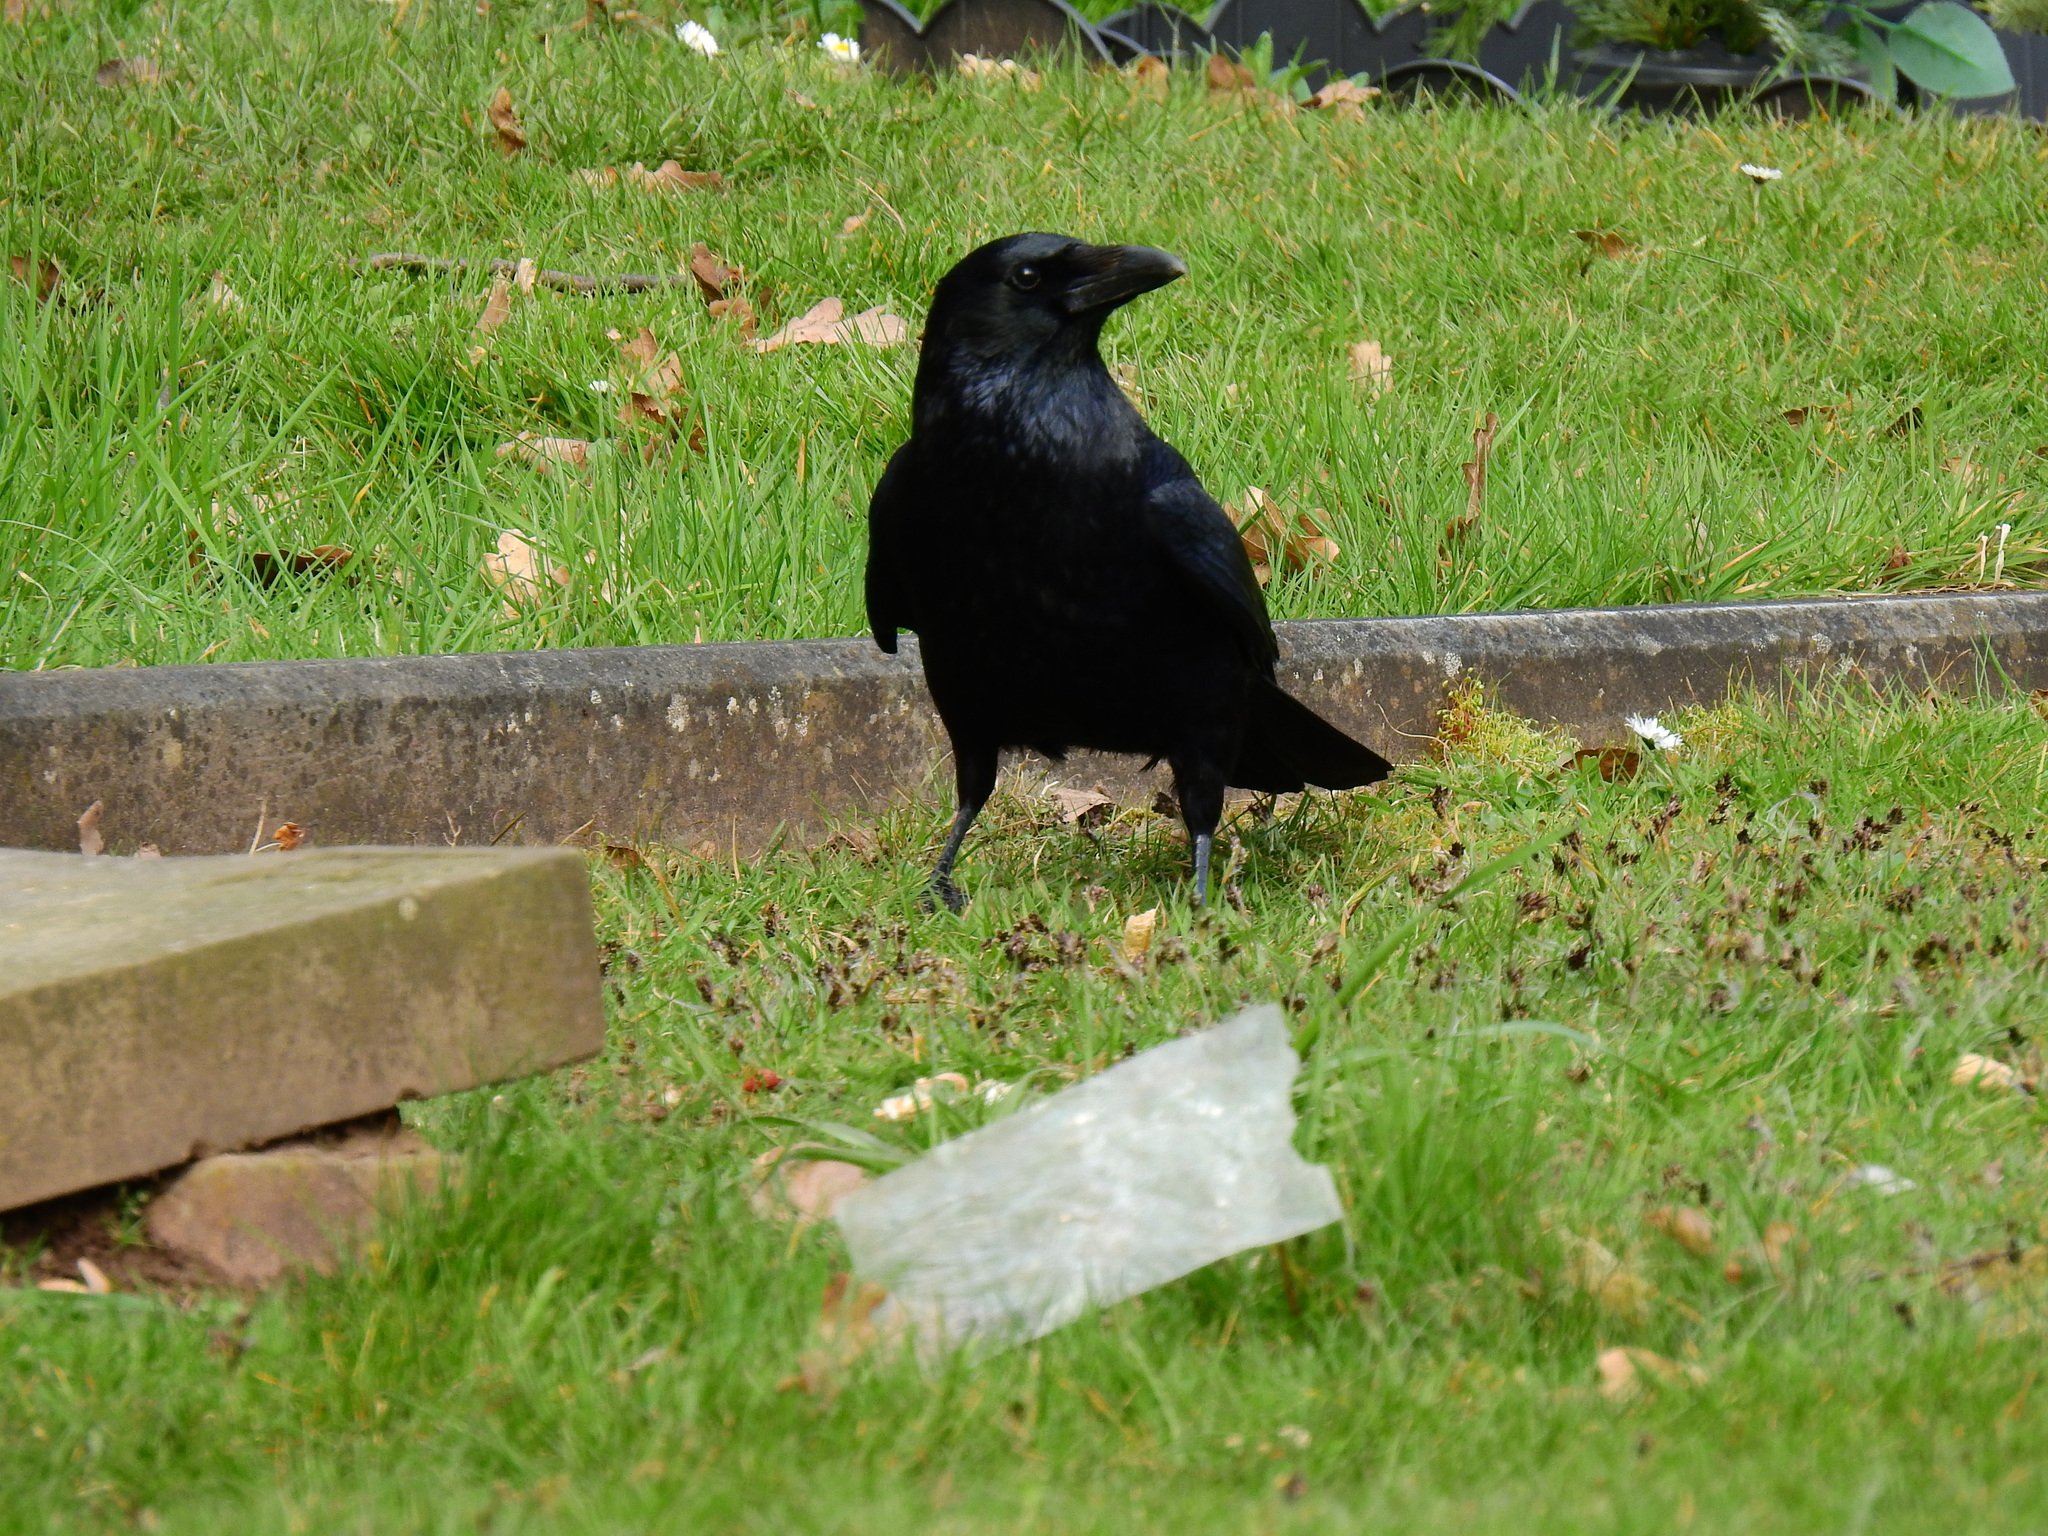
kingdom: Animalia
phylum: Chordata
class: Aves
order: Passeriformes
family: Corvidae
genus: Corvus
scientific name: Corvus corone
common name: Carrion crow
